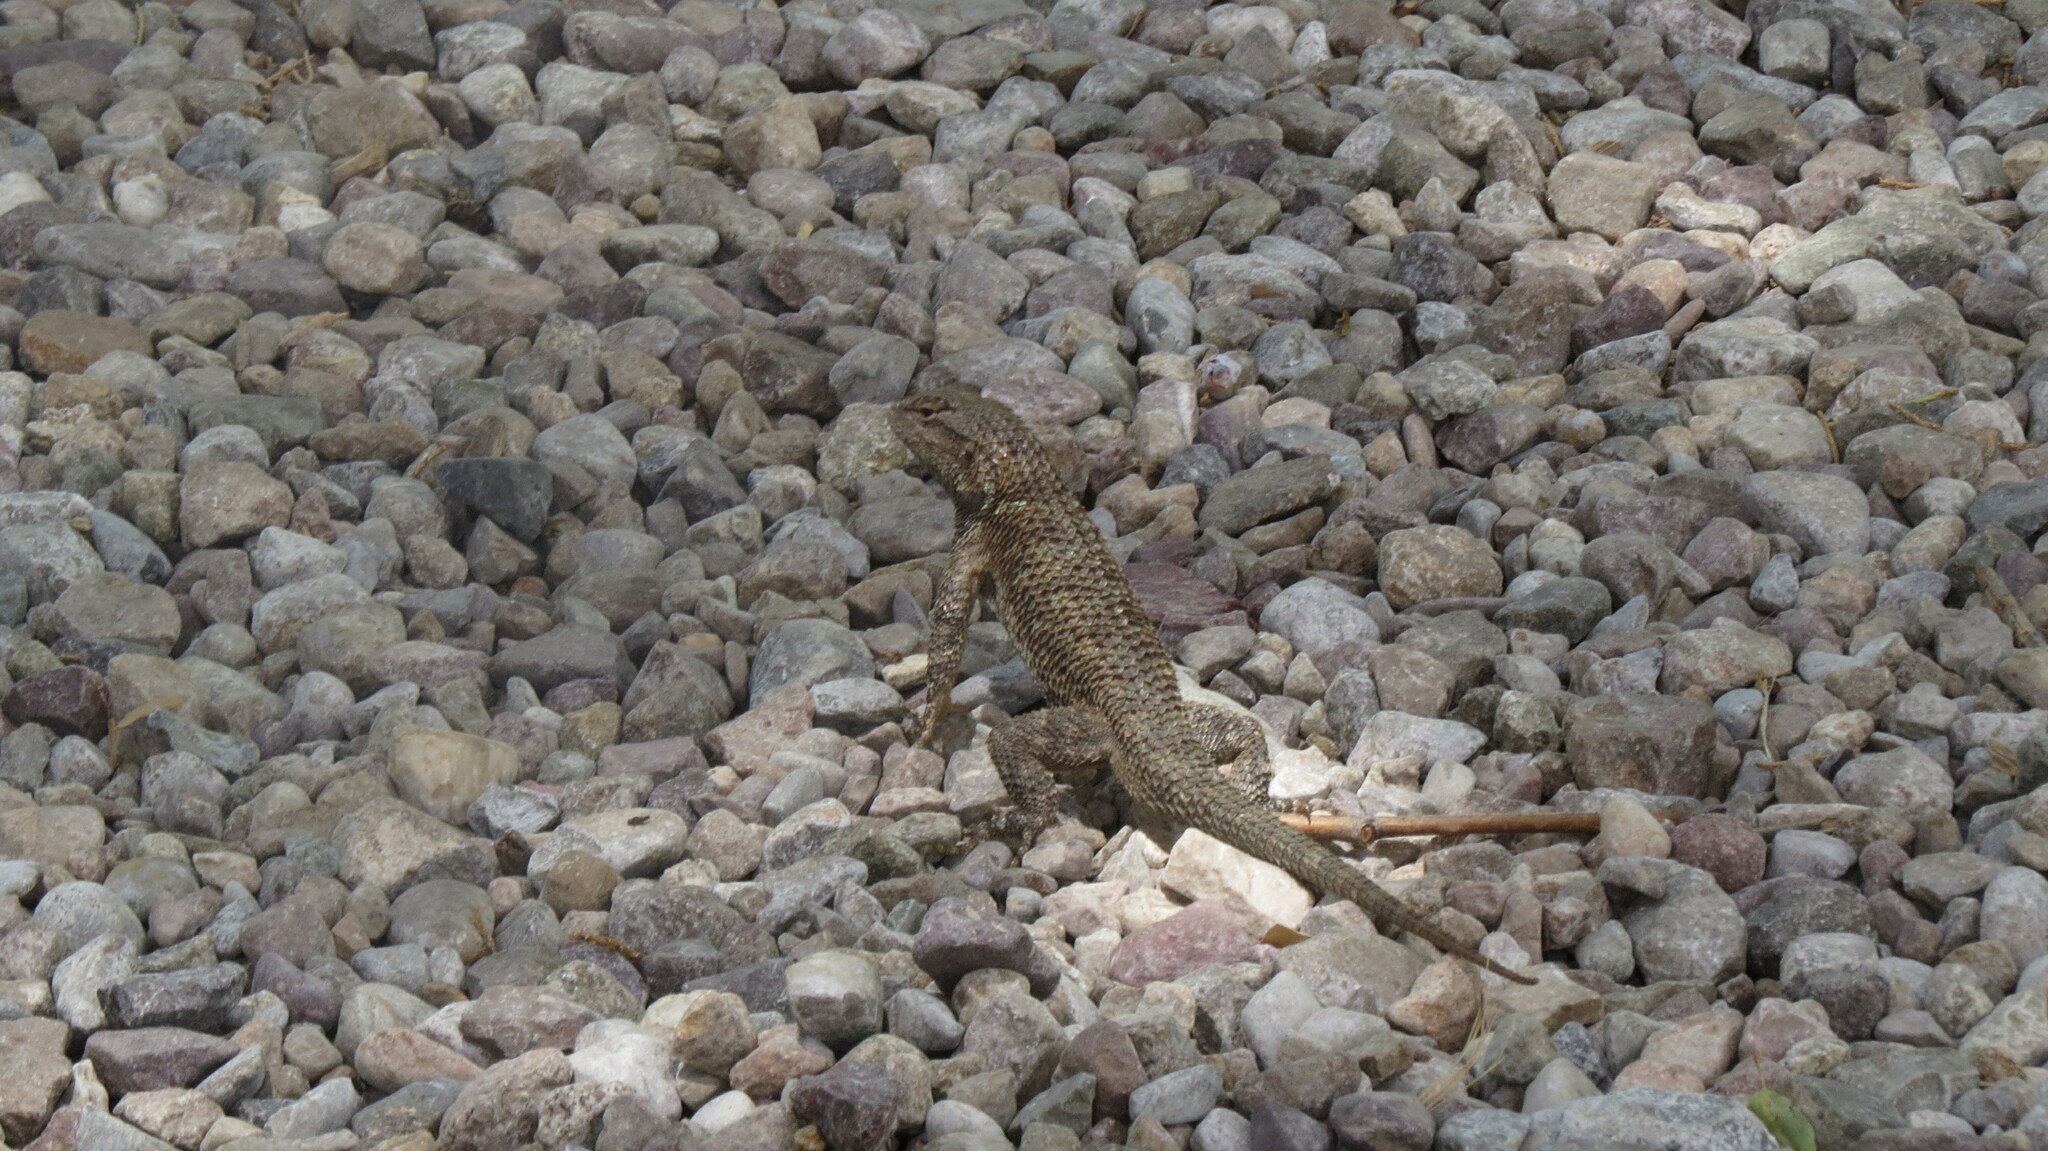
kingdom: Animalia
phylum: Chordata
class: Squamata
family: Phrynosomatidae
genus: Sceloporus
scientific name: Sceloporus clarkii
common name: Clark's spiny lizard
